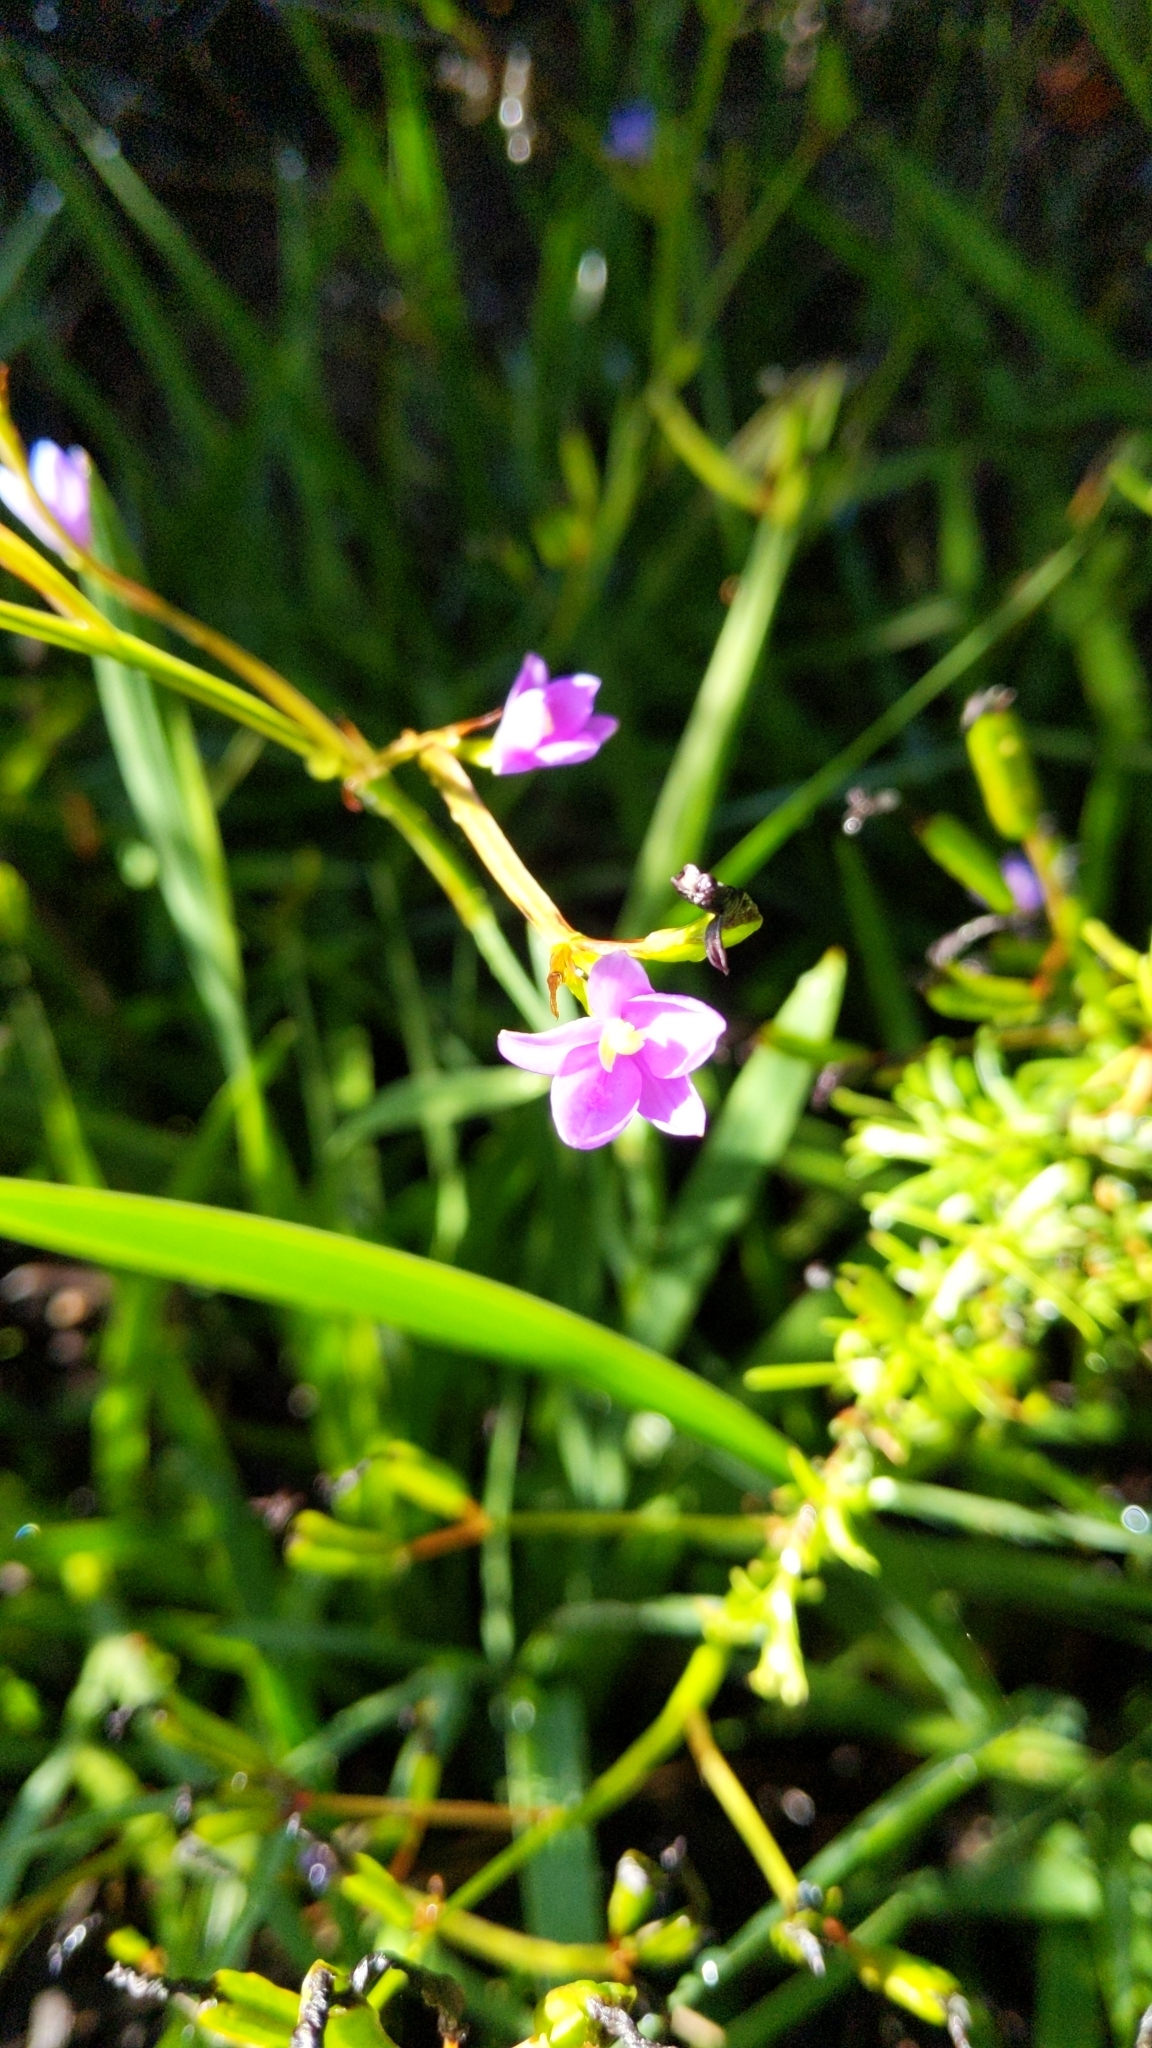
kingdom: Plantae
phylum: Tracheophyta
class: Liliopsida
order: Asparagales
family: Iridaceae
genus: Aristea
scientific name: Aristea ecklonii
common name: Blue corn-lily
